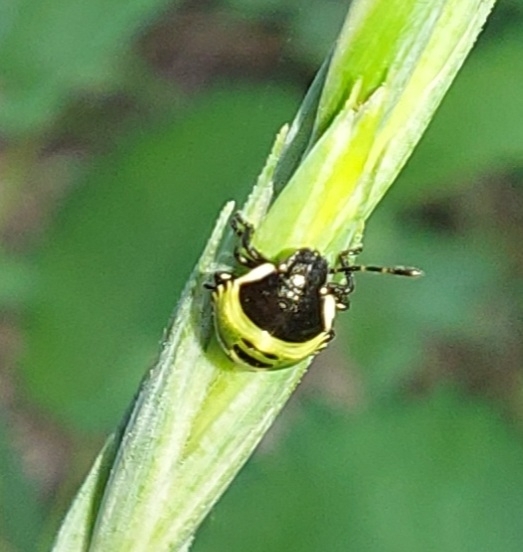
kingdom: Animalia
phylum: Arthropoda
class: Insecta
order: Hemiptera
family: Pentatomidae
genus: Palomena
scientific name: Palomena prasina
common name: Green shieldbug
